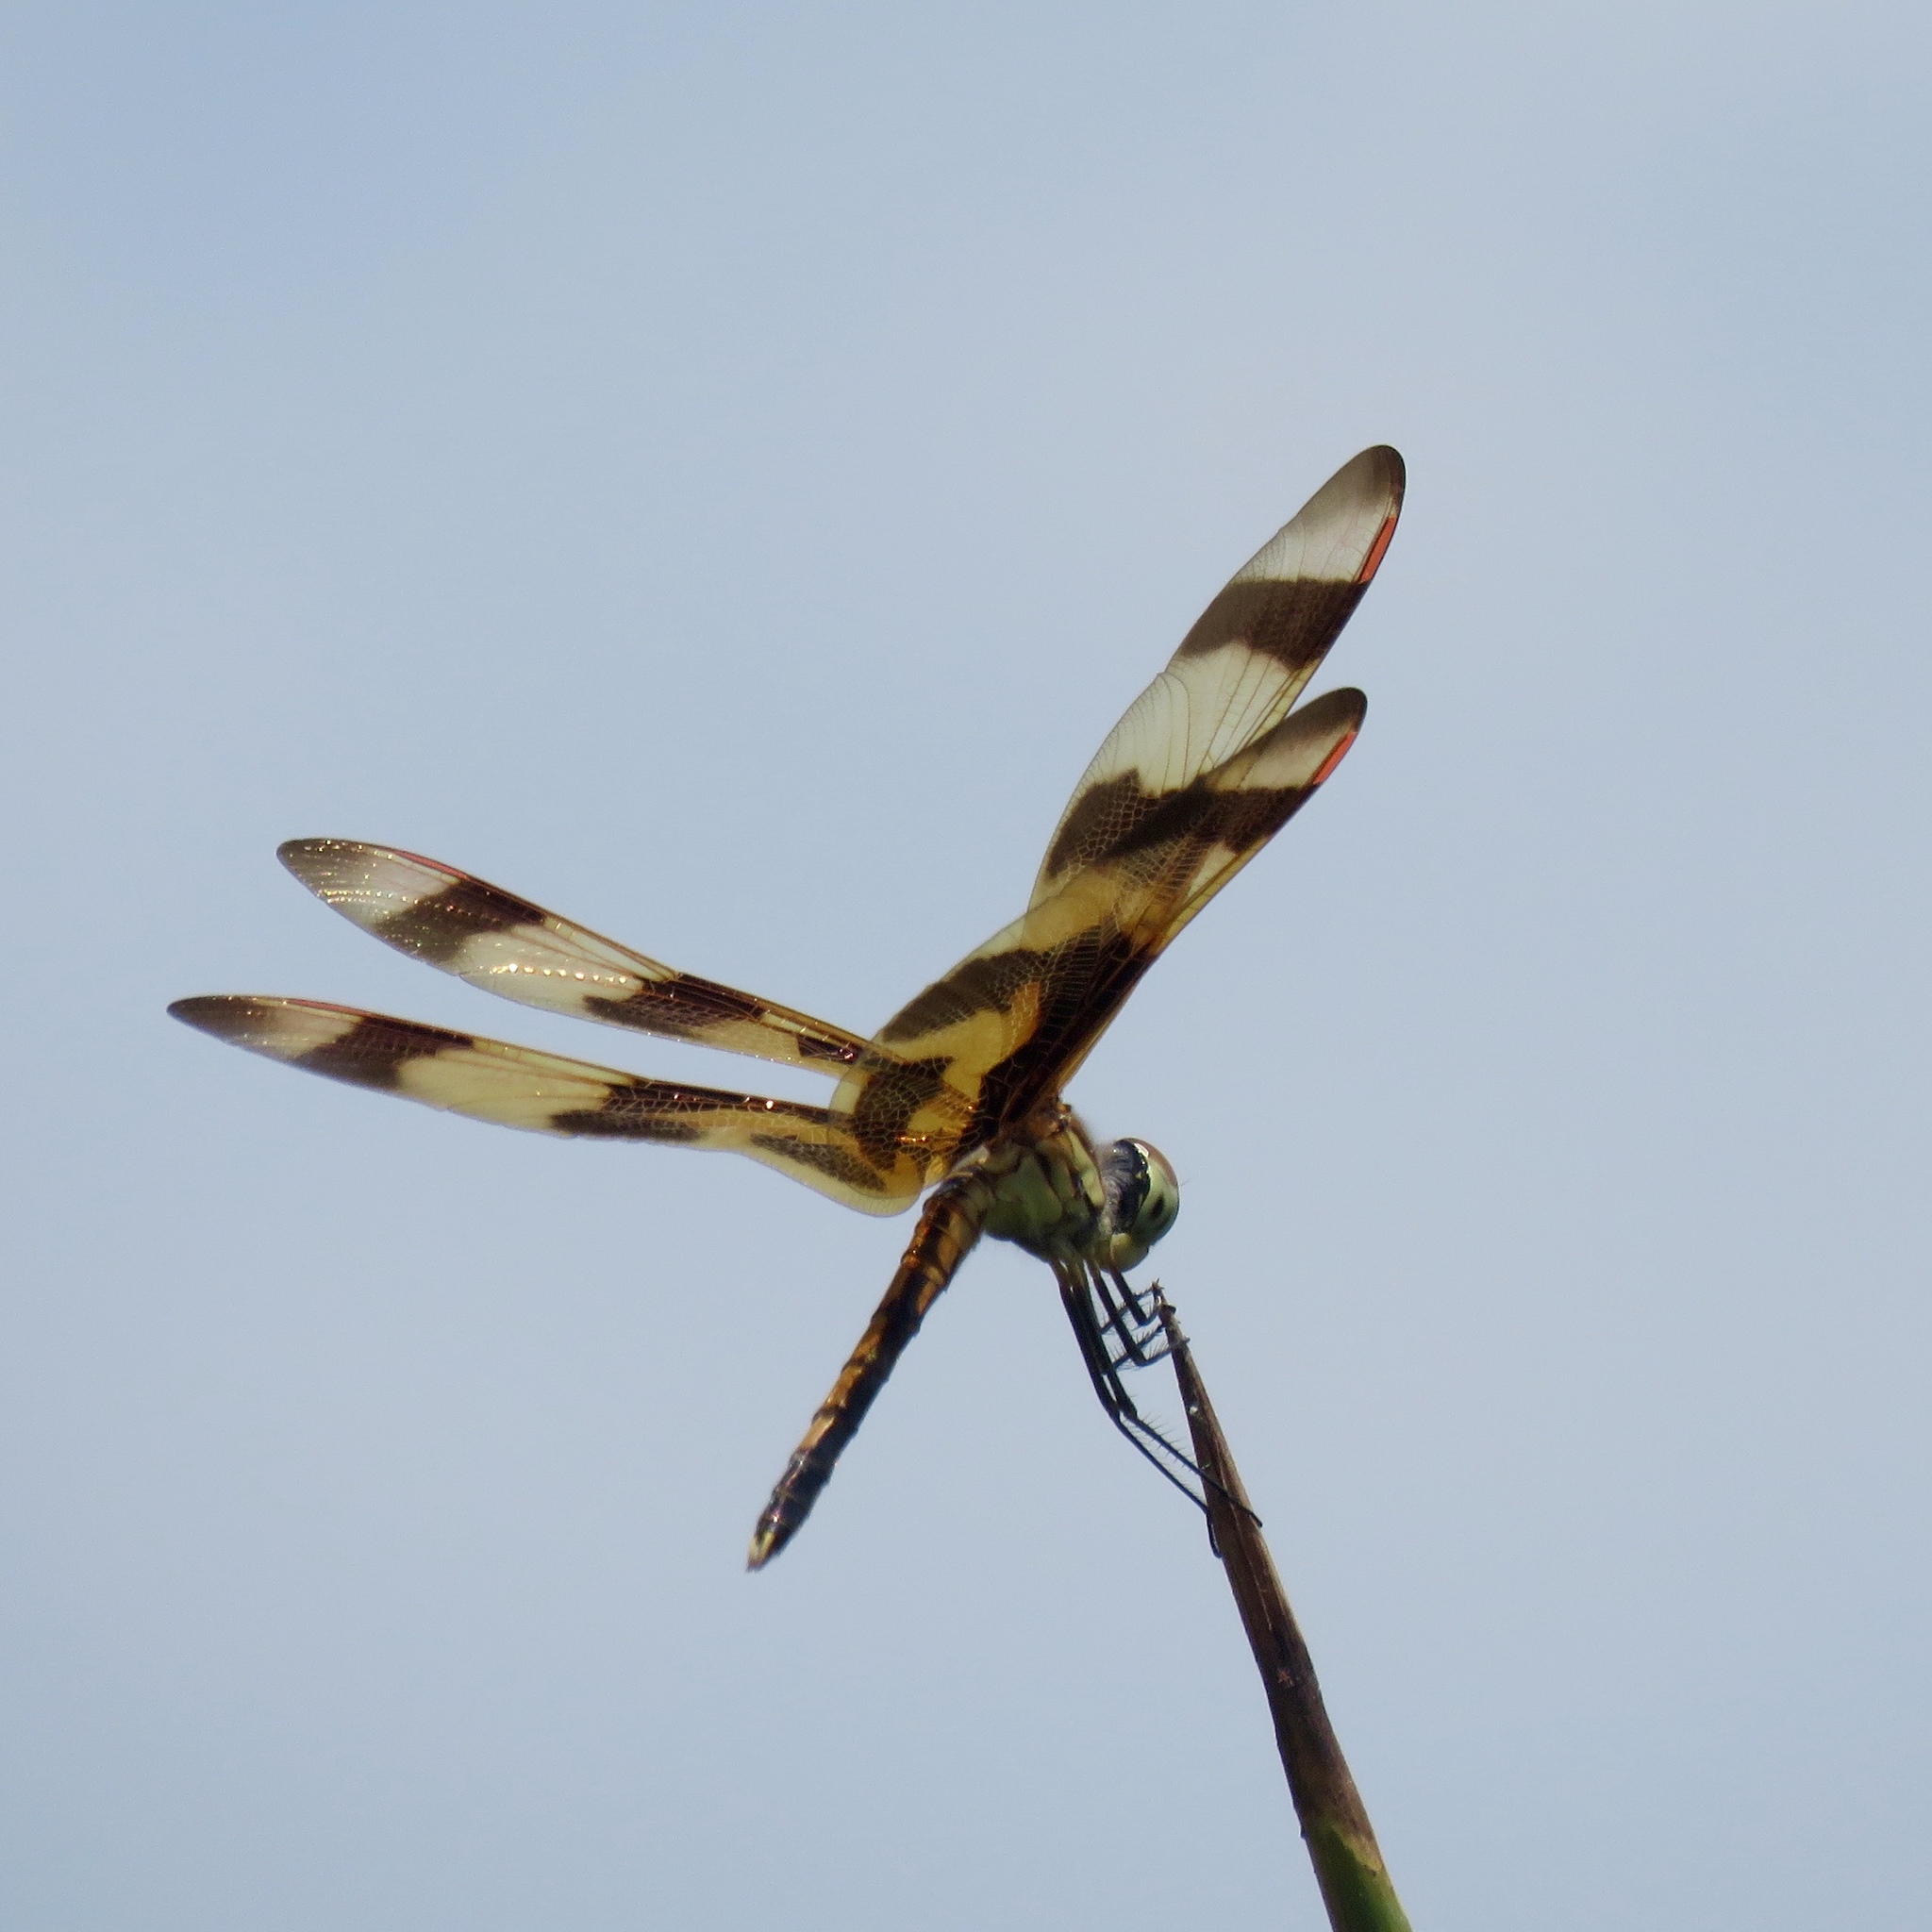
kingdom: Animalia
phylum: Arthropoda
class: Insecta
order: Odonata
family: Libellulidae
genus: Celithemis
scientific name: Celithemis eponina
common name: Halloween pennant
